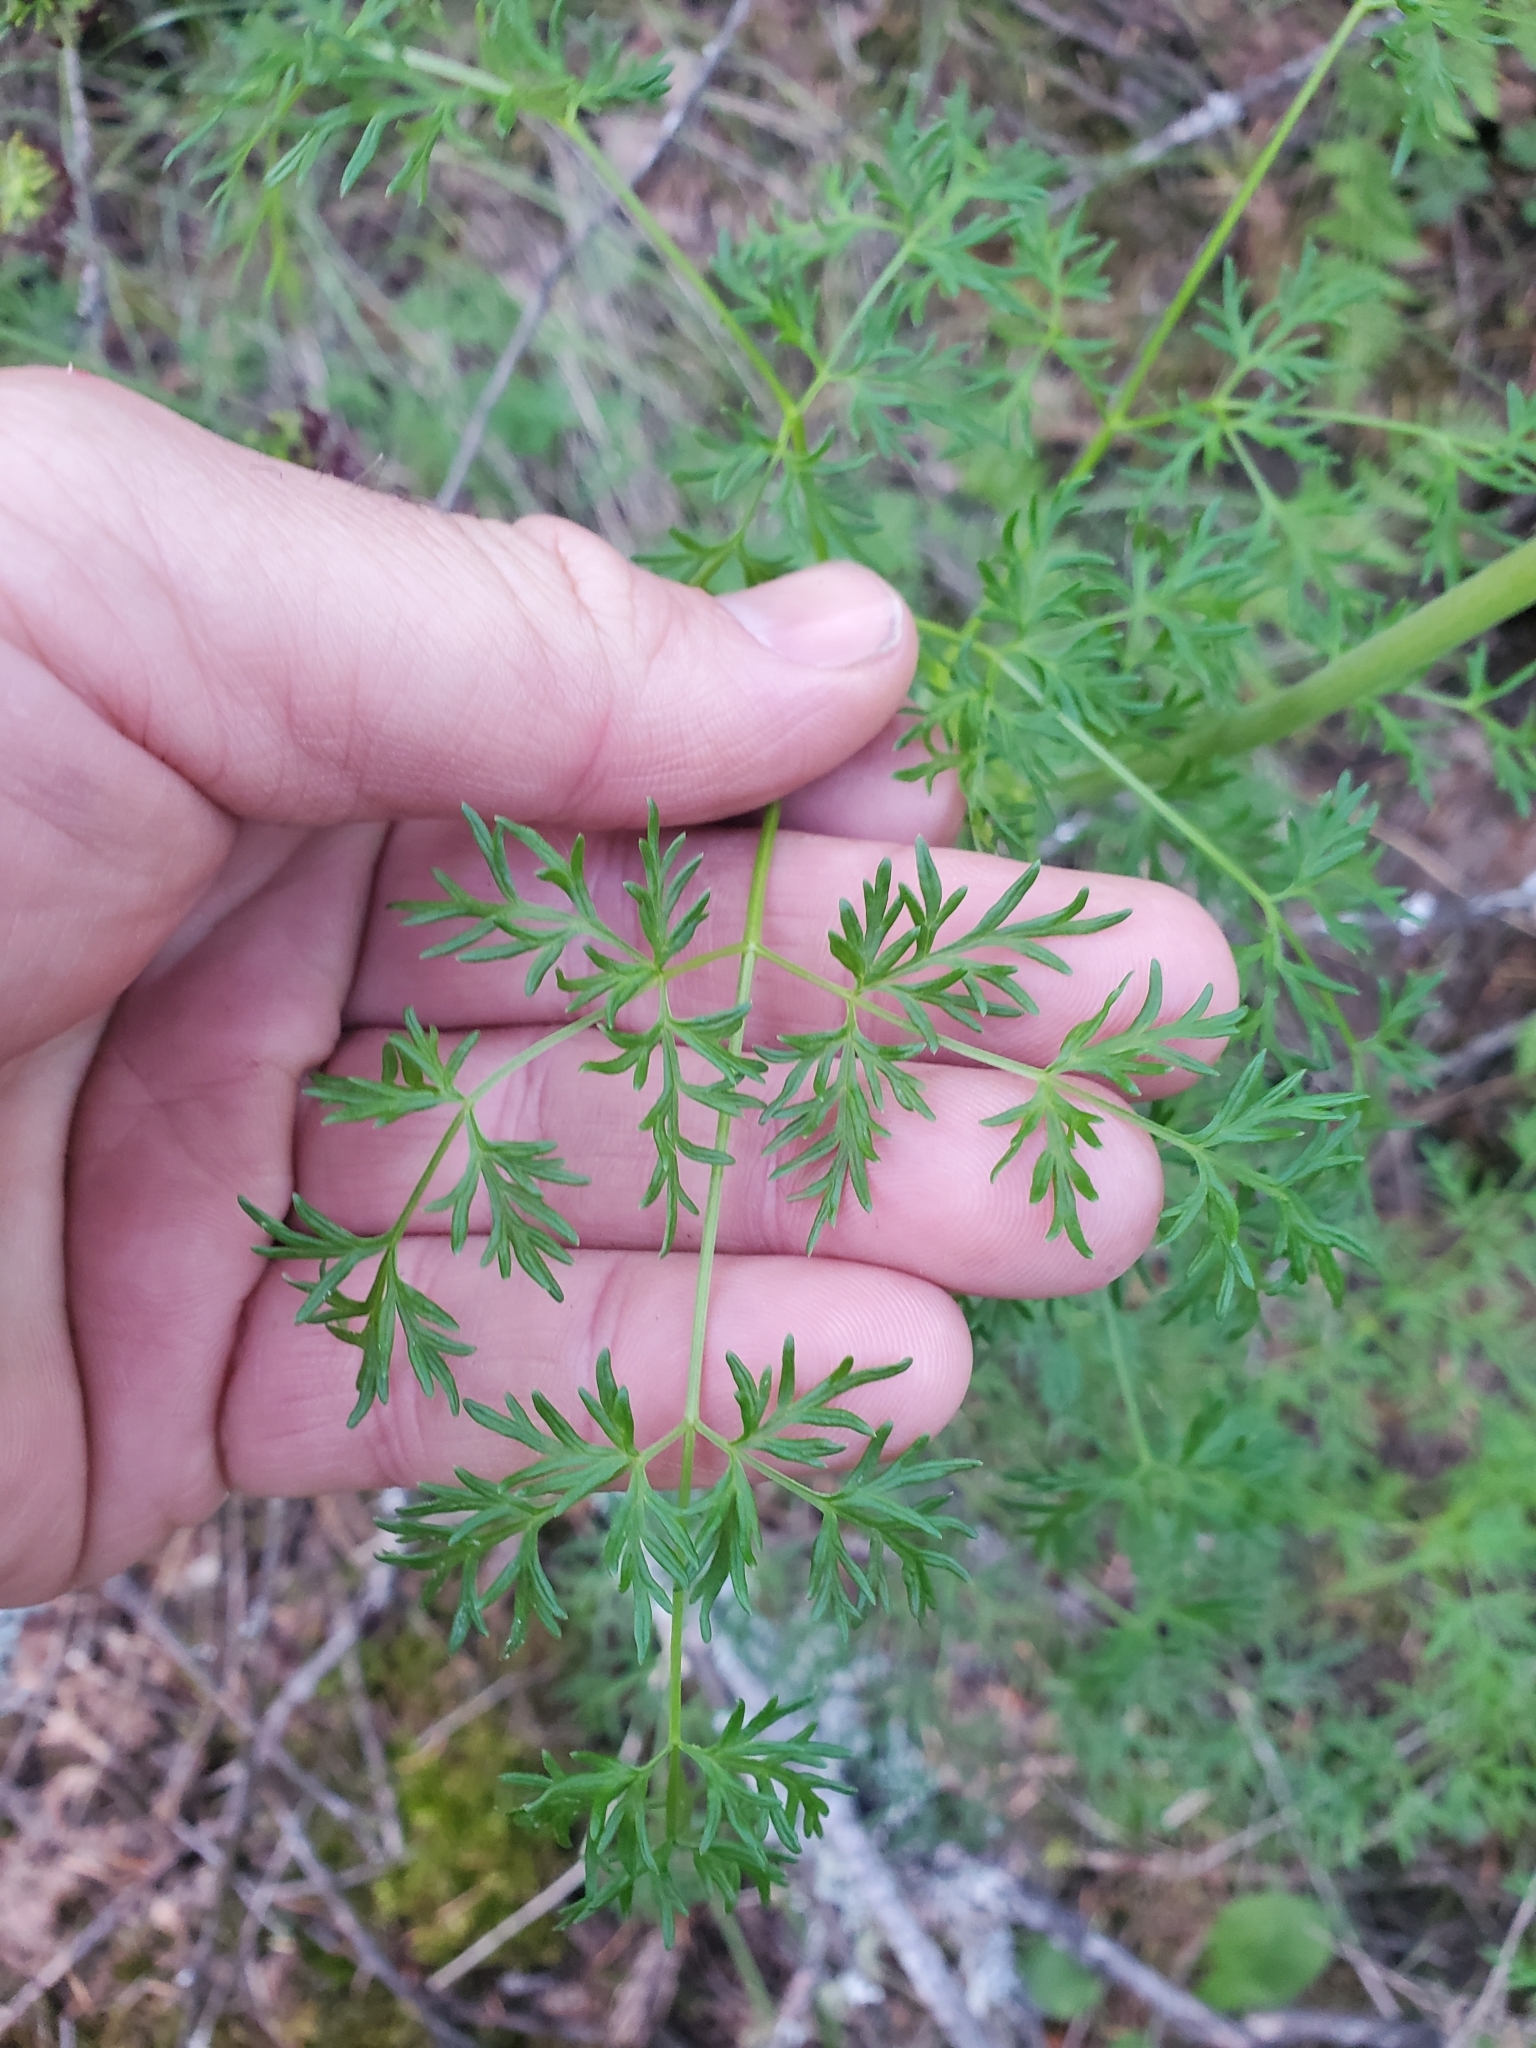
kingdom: Plantae
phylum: Tracheophyta
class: Magnoliopsida
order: Apiales
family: Apiaceae
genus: Lomatium
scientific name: Lomatium multifidum
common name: Carrot-leaved biscuitroot
